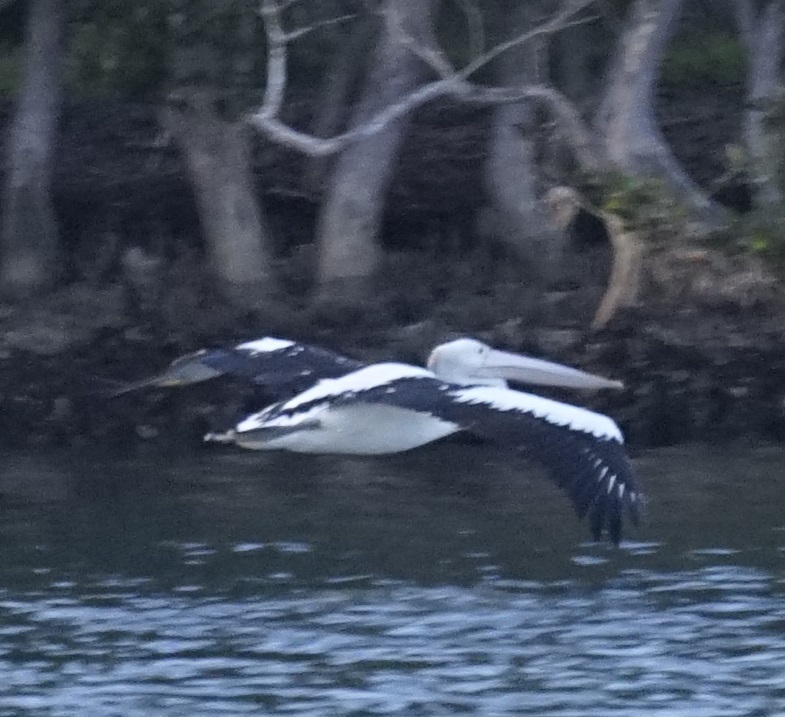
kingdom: Animalia
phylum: Chordata
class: Aves
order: Pelecaniformes
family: Pelecanidae
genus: Pelecanus
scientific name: Pelecanus conspicillatus
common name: Australian pelican
